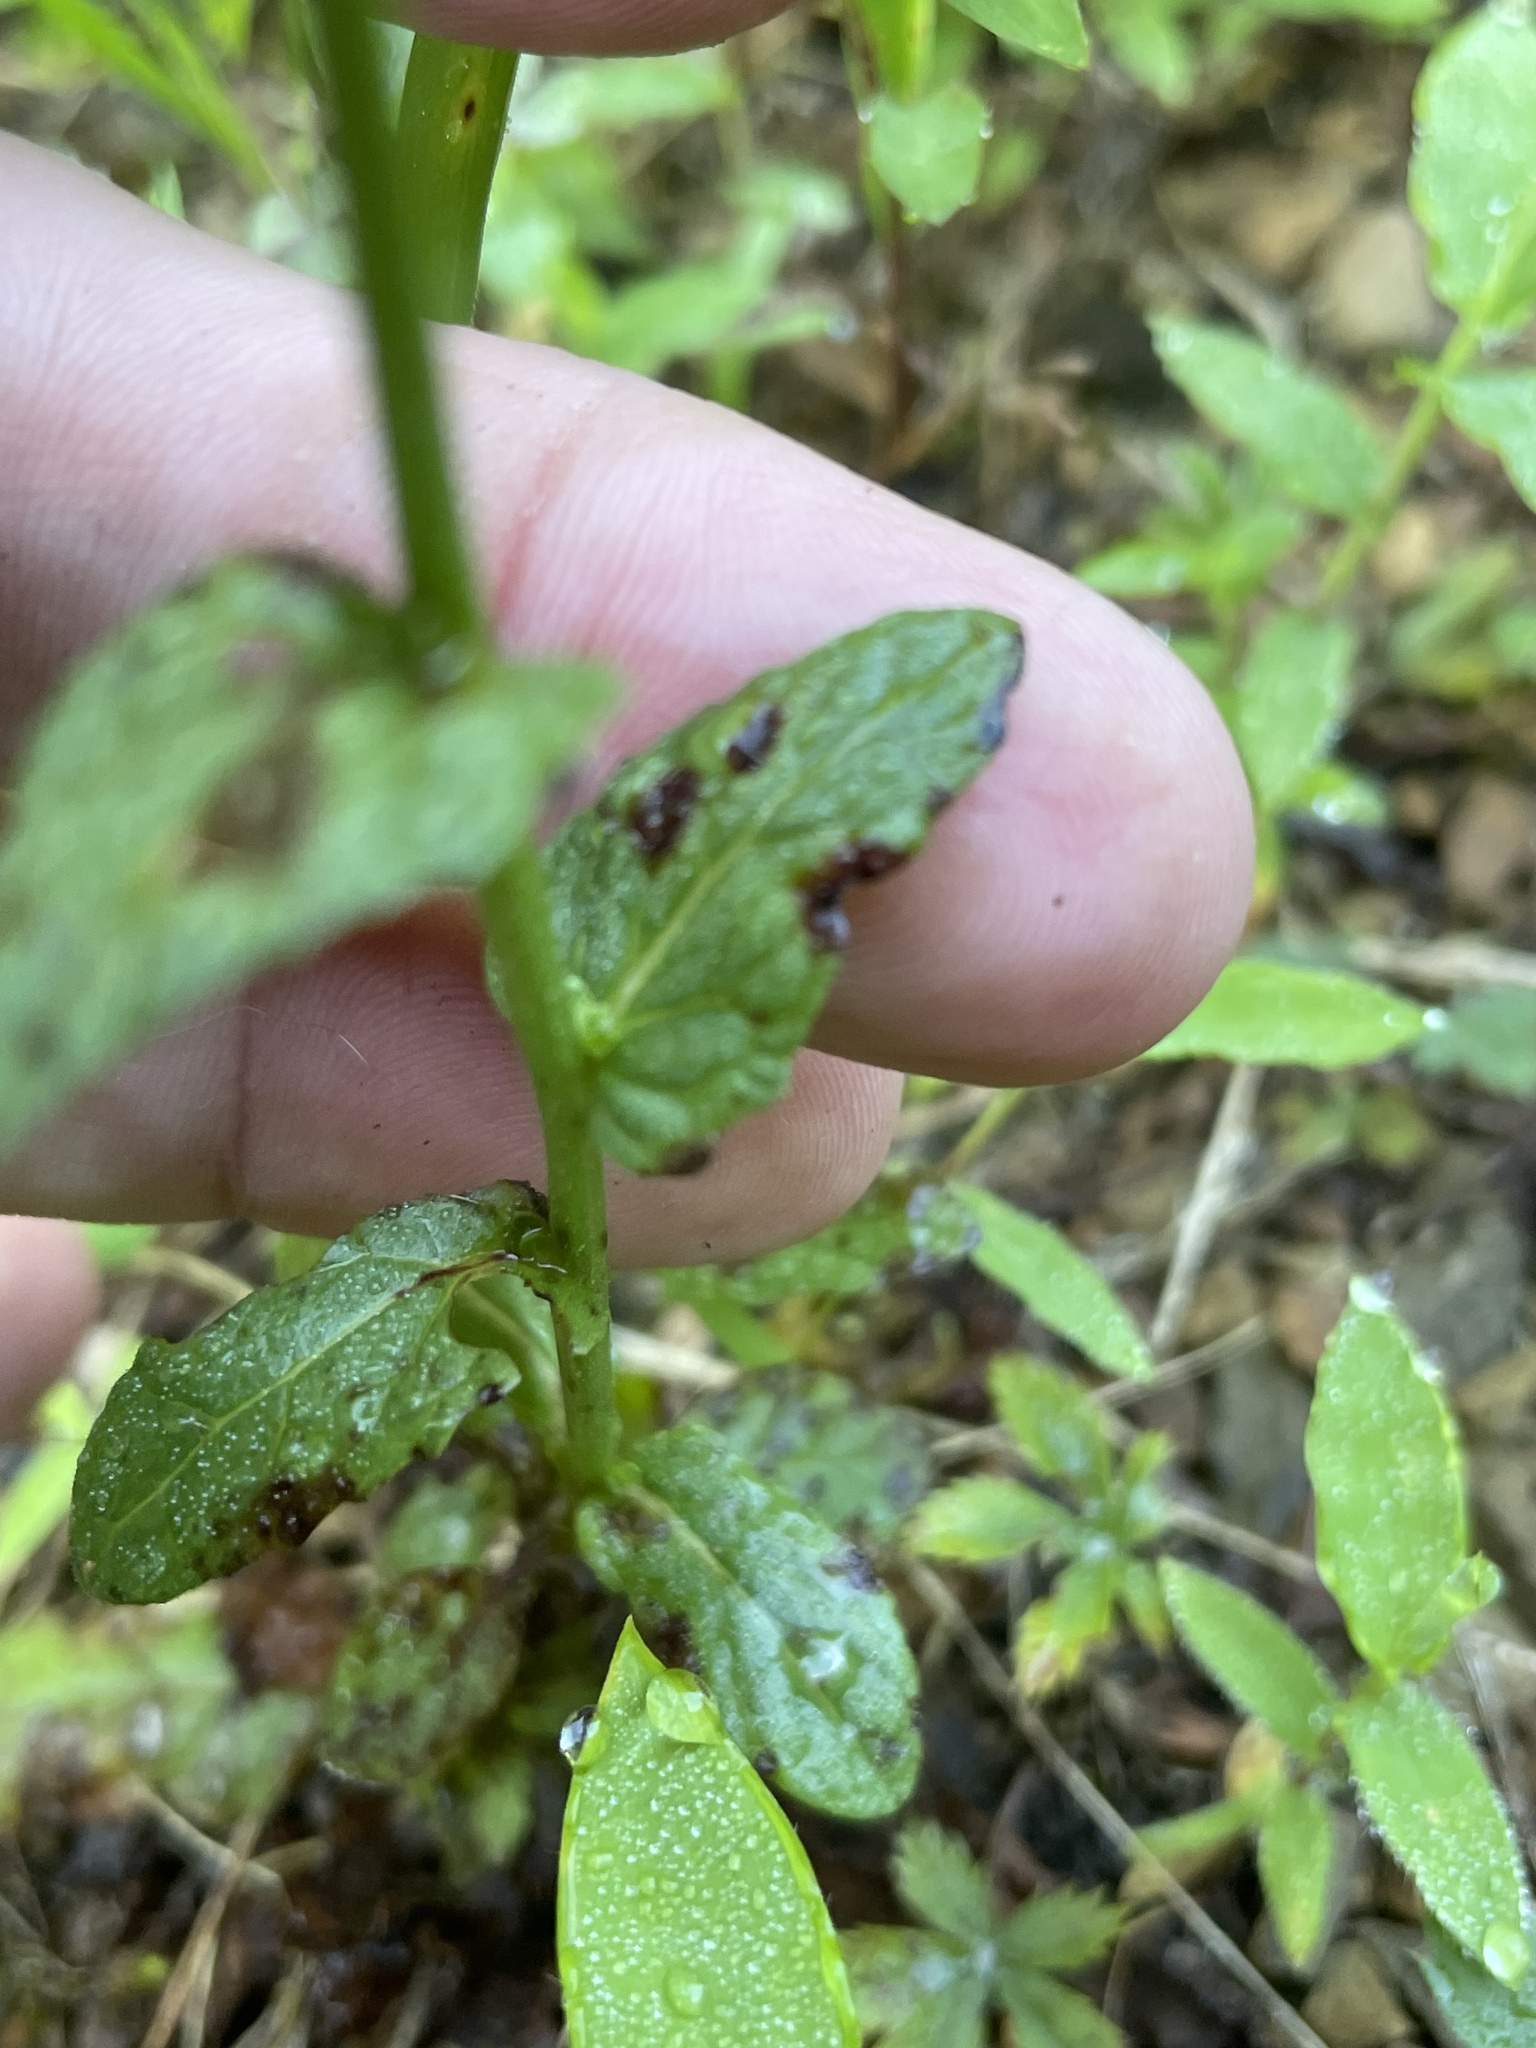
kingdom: Plantae
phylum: Tracheophyta
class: Magnoliopsida
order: Lamiales
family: Scrophulariaceae
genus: Verbascum
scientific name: Verbascum blattaria
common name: Moth mullein
